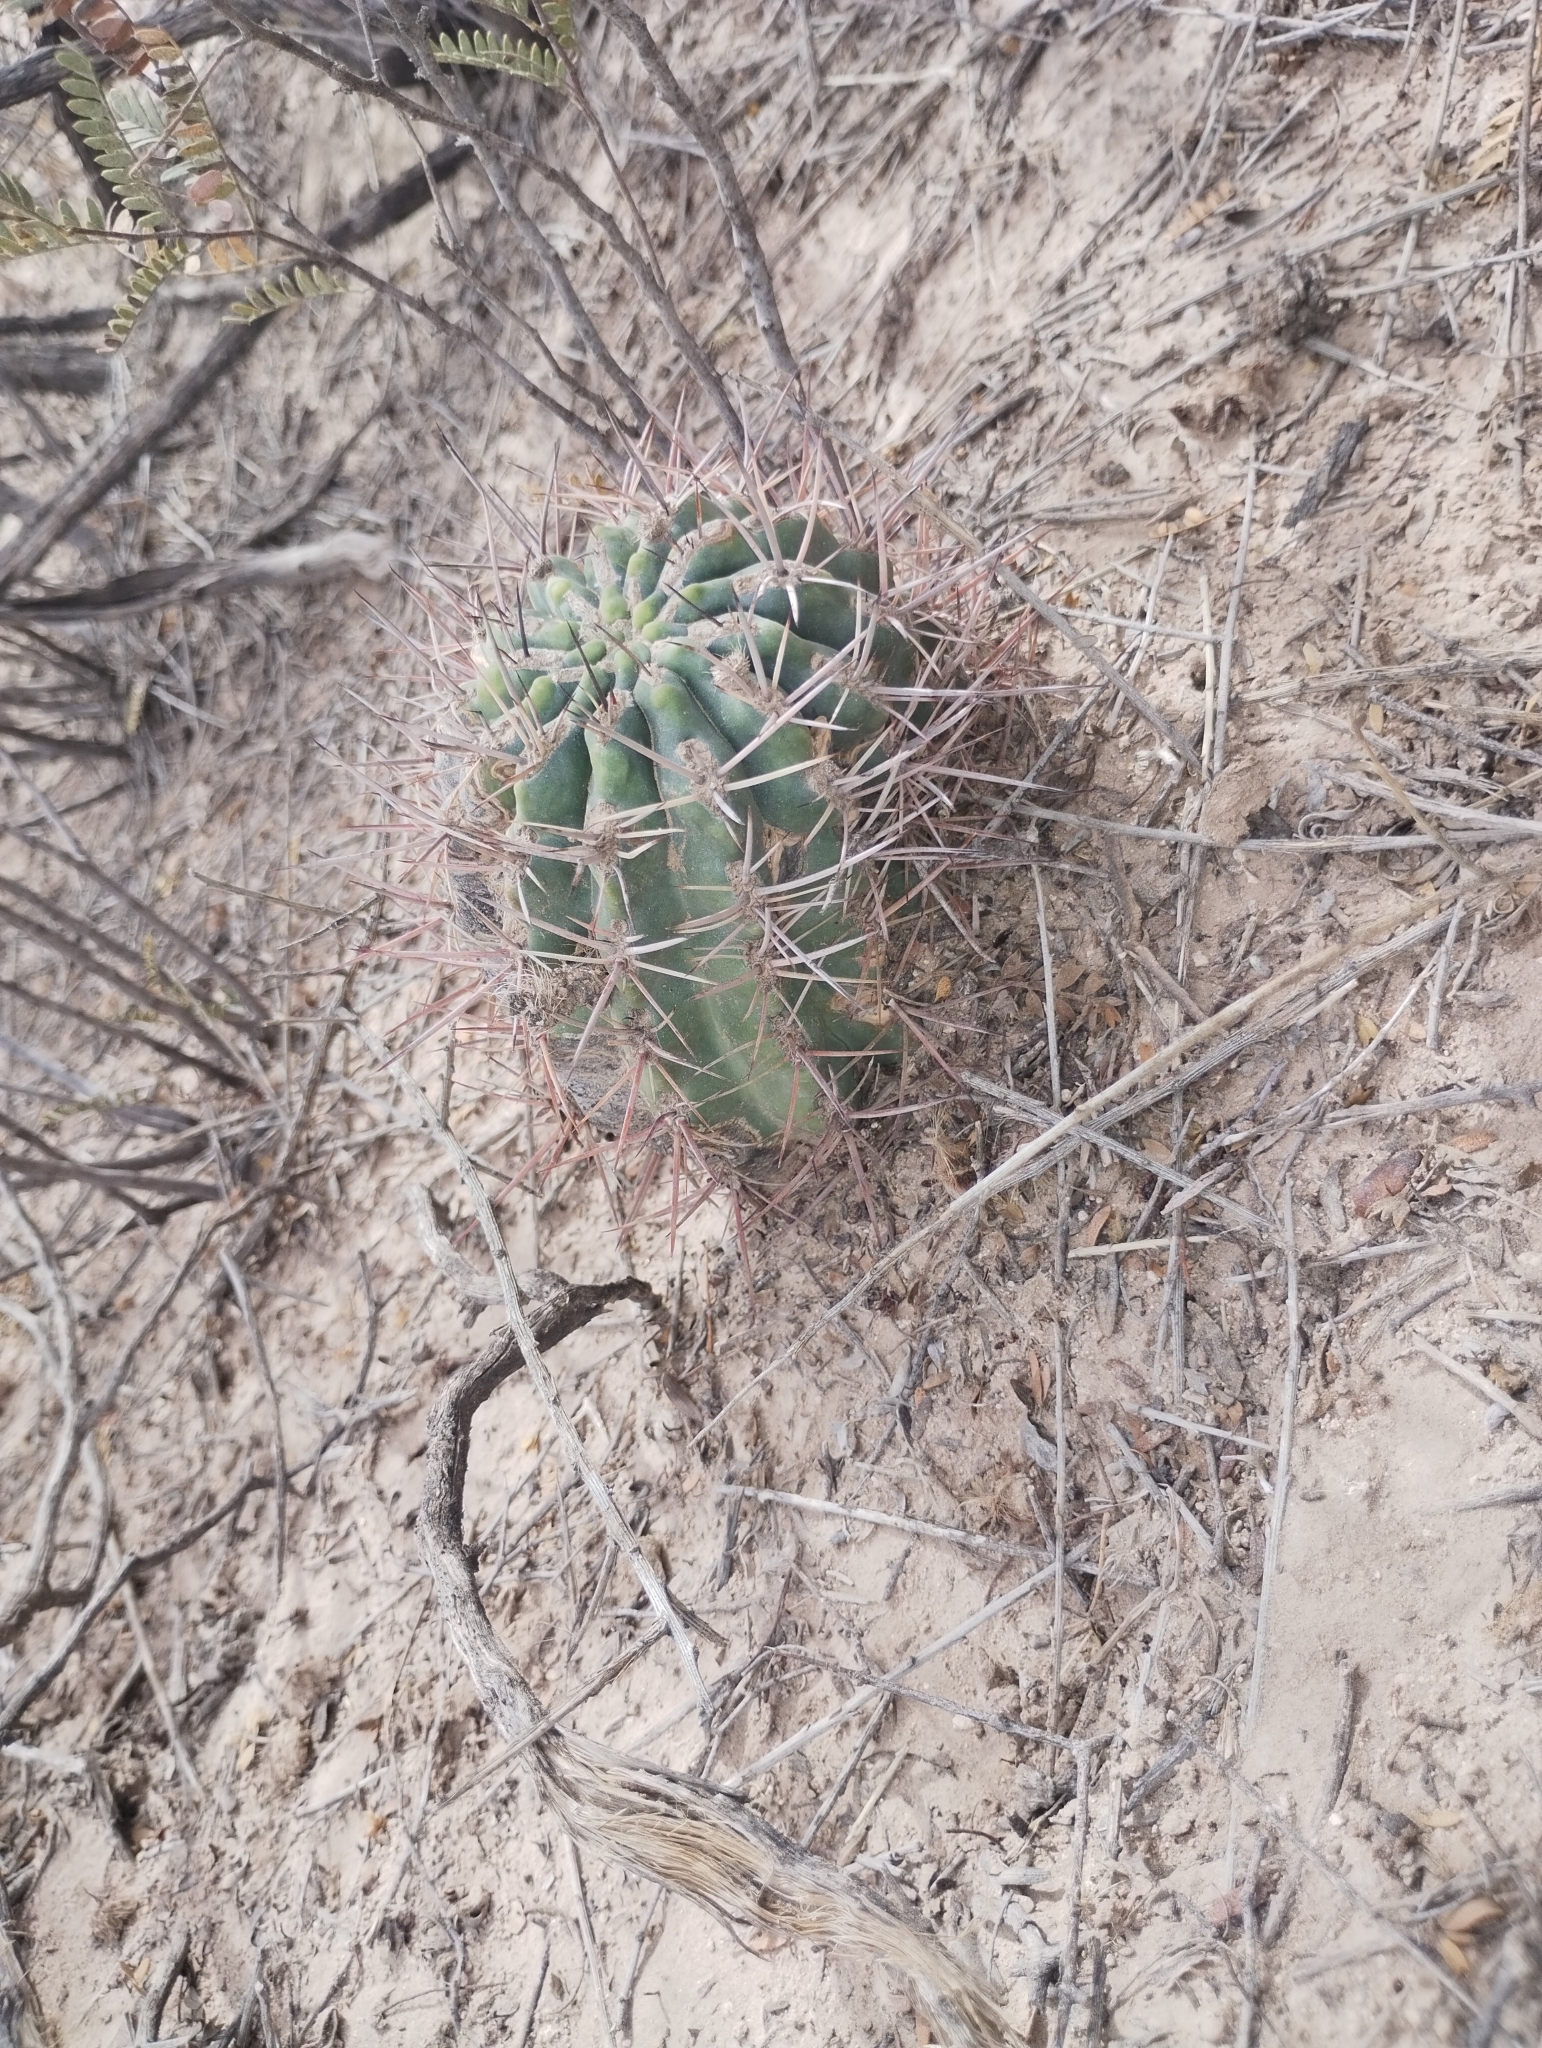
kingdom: Plantae
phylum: Tracheophyta
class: Magnoliopsida
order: Caryophyllales
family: Cactaceae
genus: Acanthocalycium
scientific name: Acanthocalycium leucanthum
